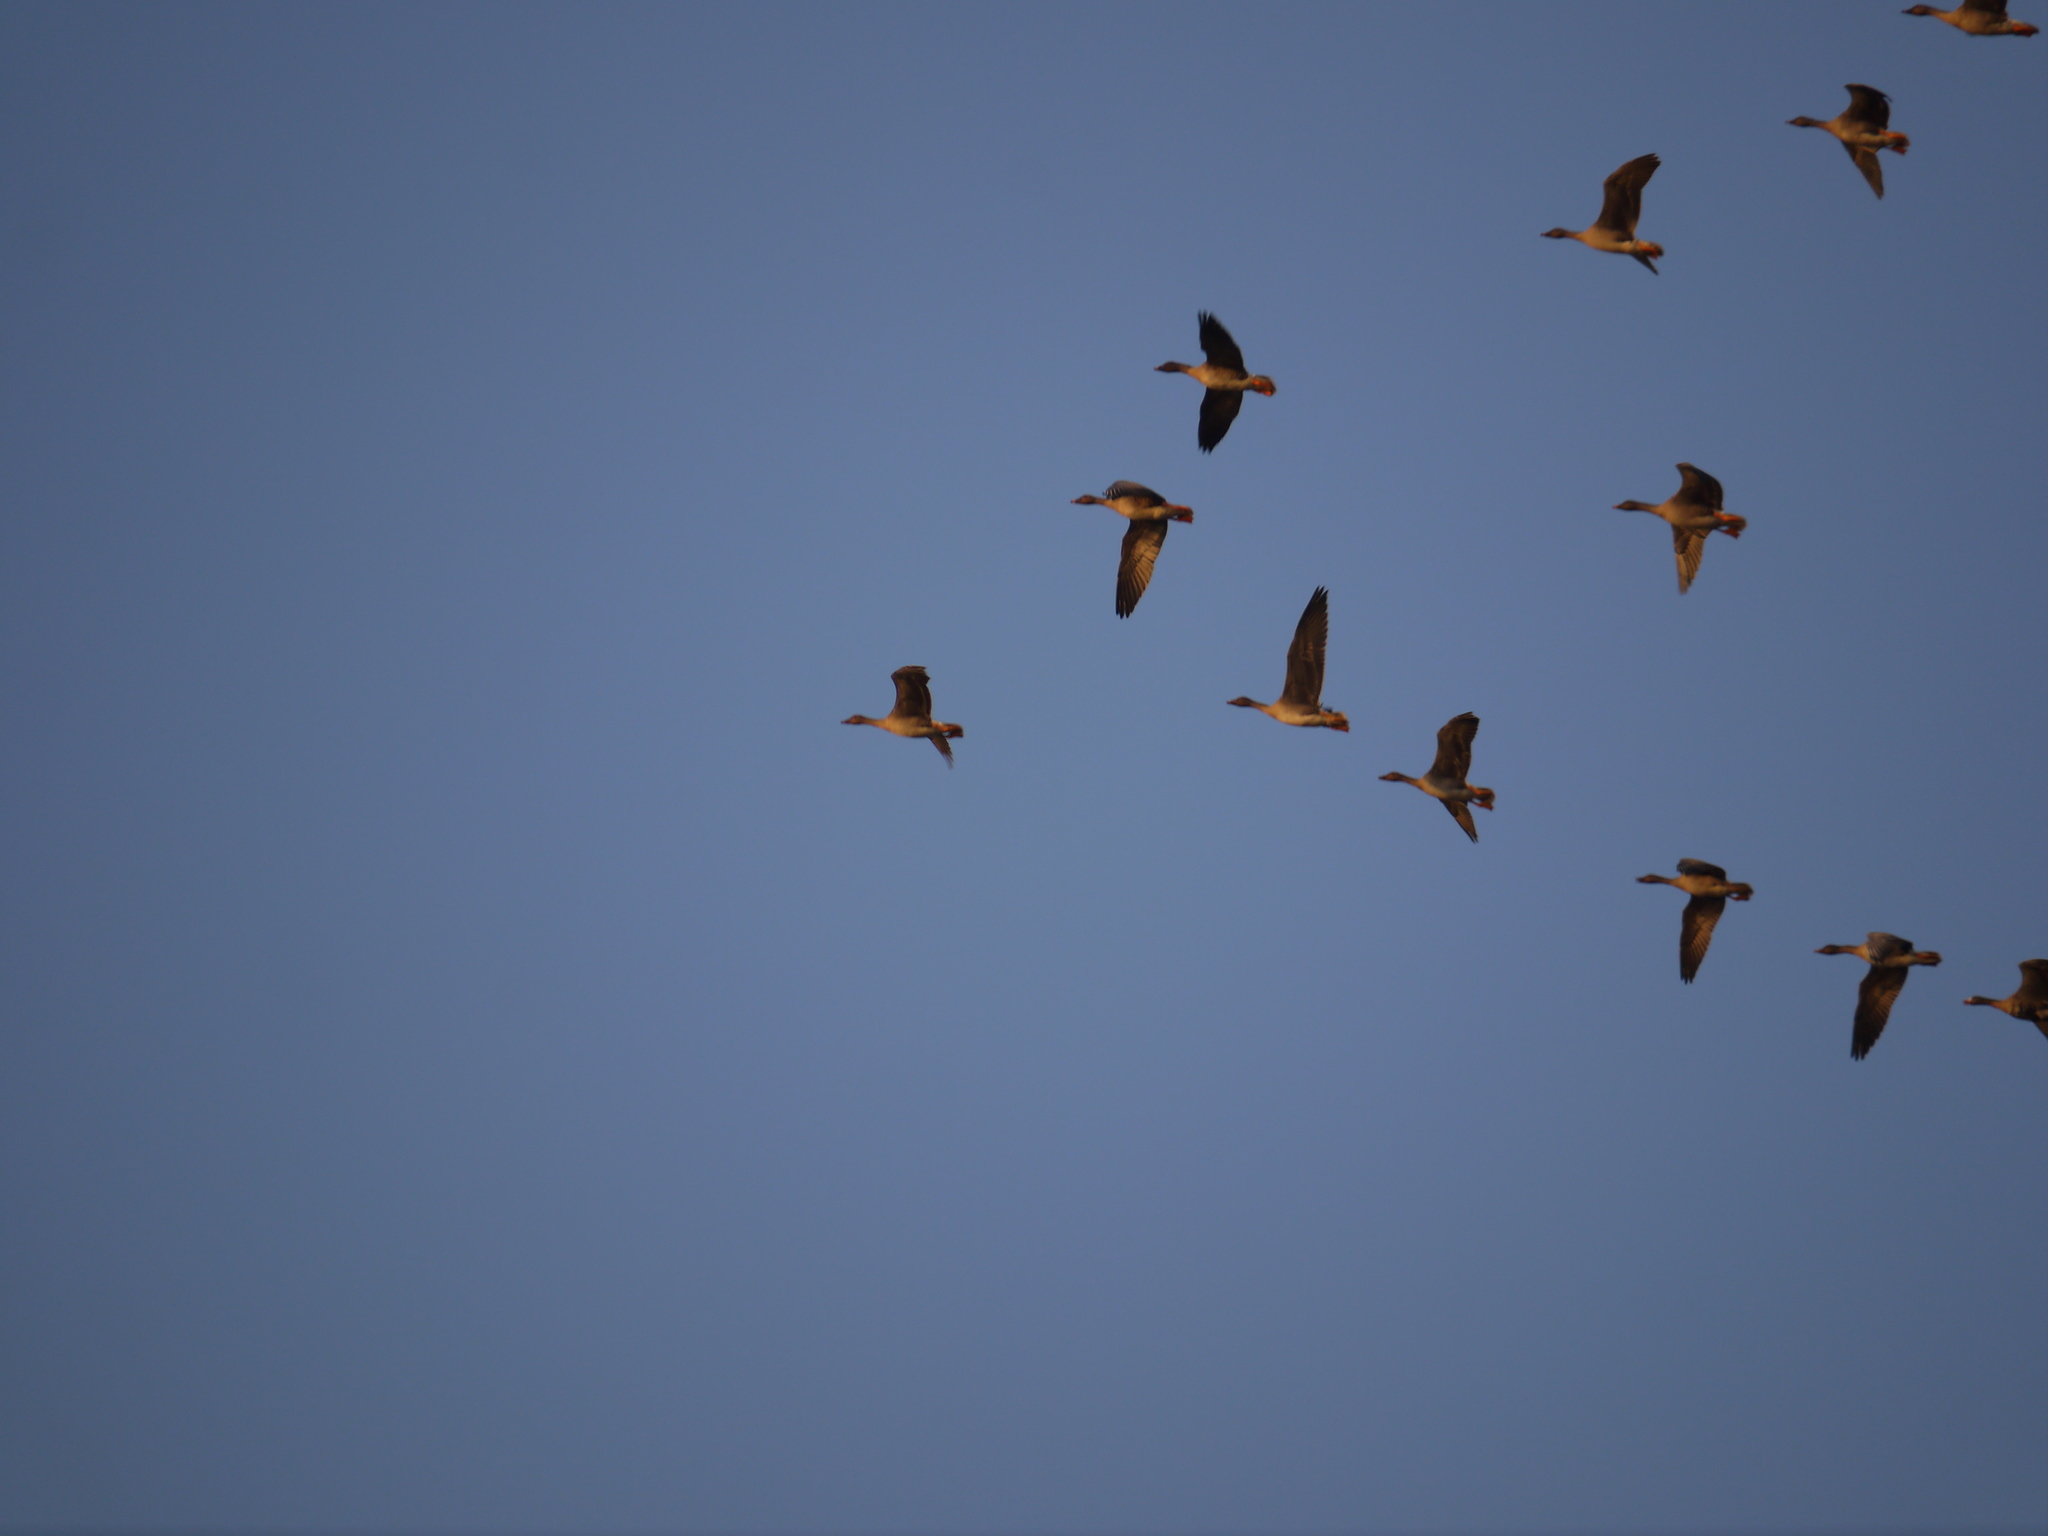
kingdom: Animalia
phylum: Chordata
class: Aves
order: Anseriformes
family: Anatidae
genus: Anser
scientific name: Anser serrirostris
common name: Tundra bean goose
